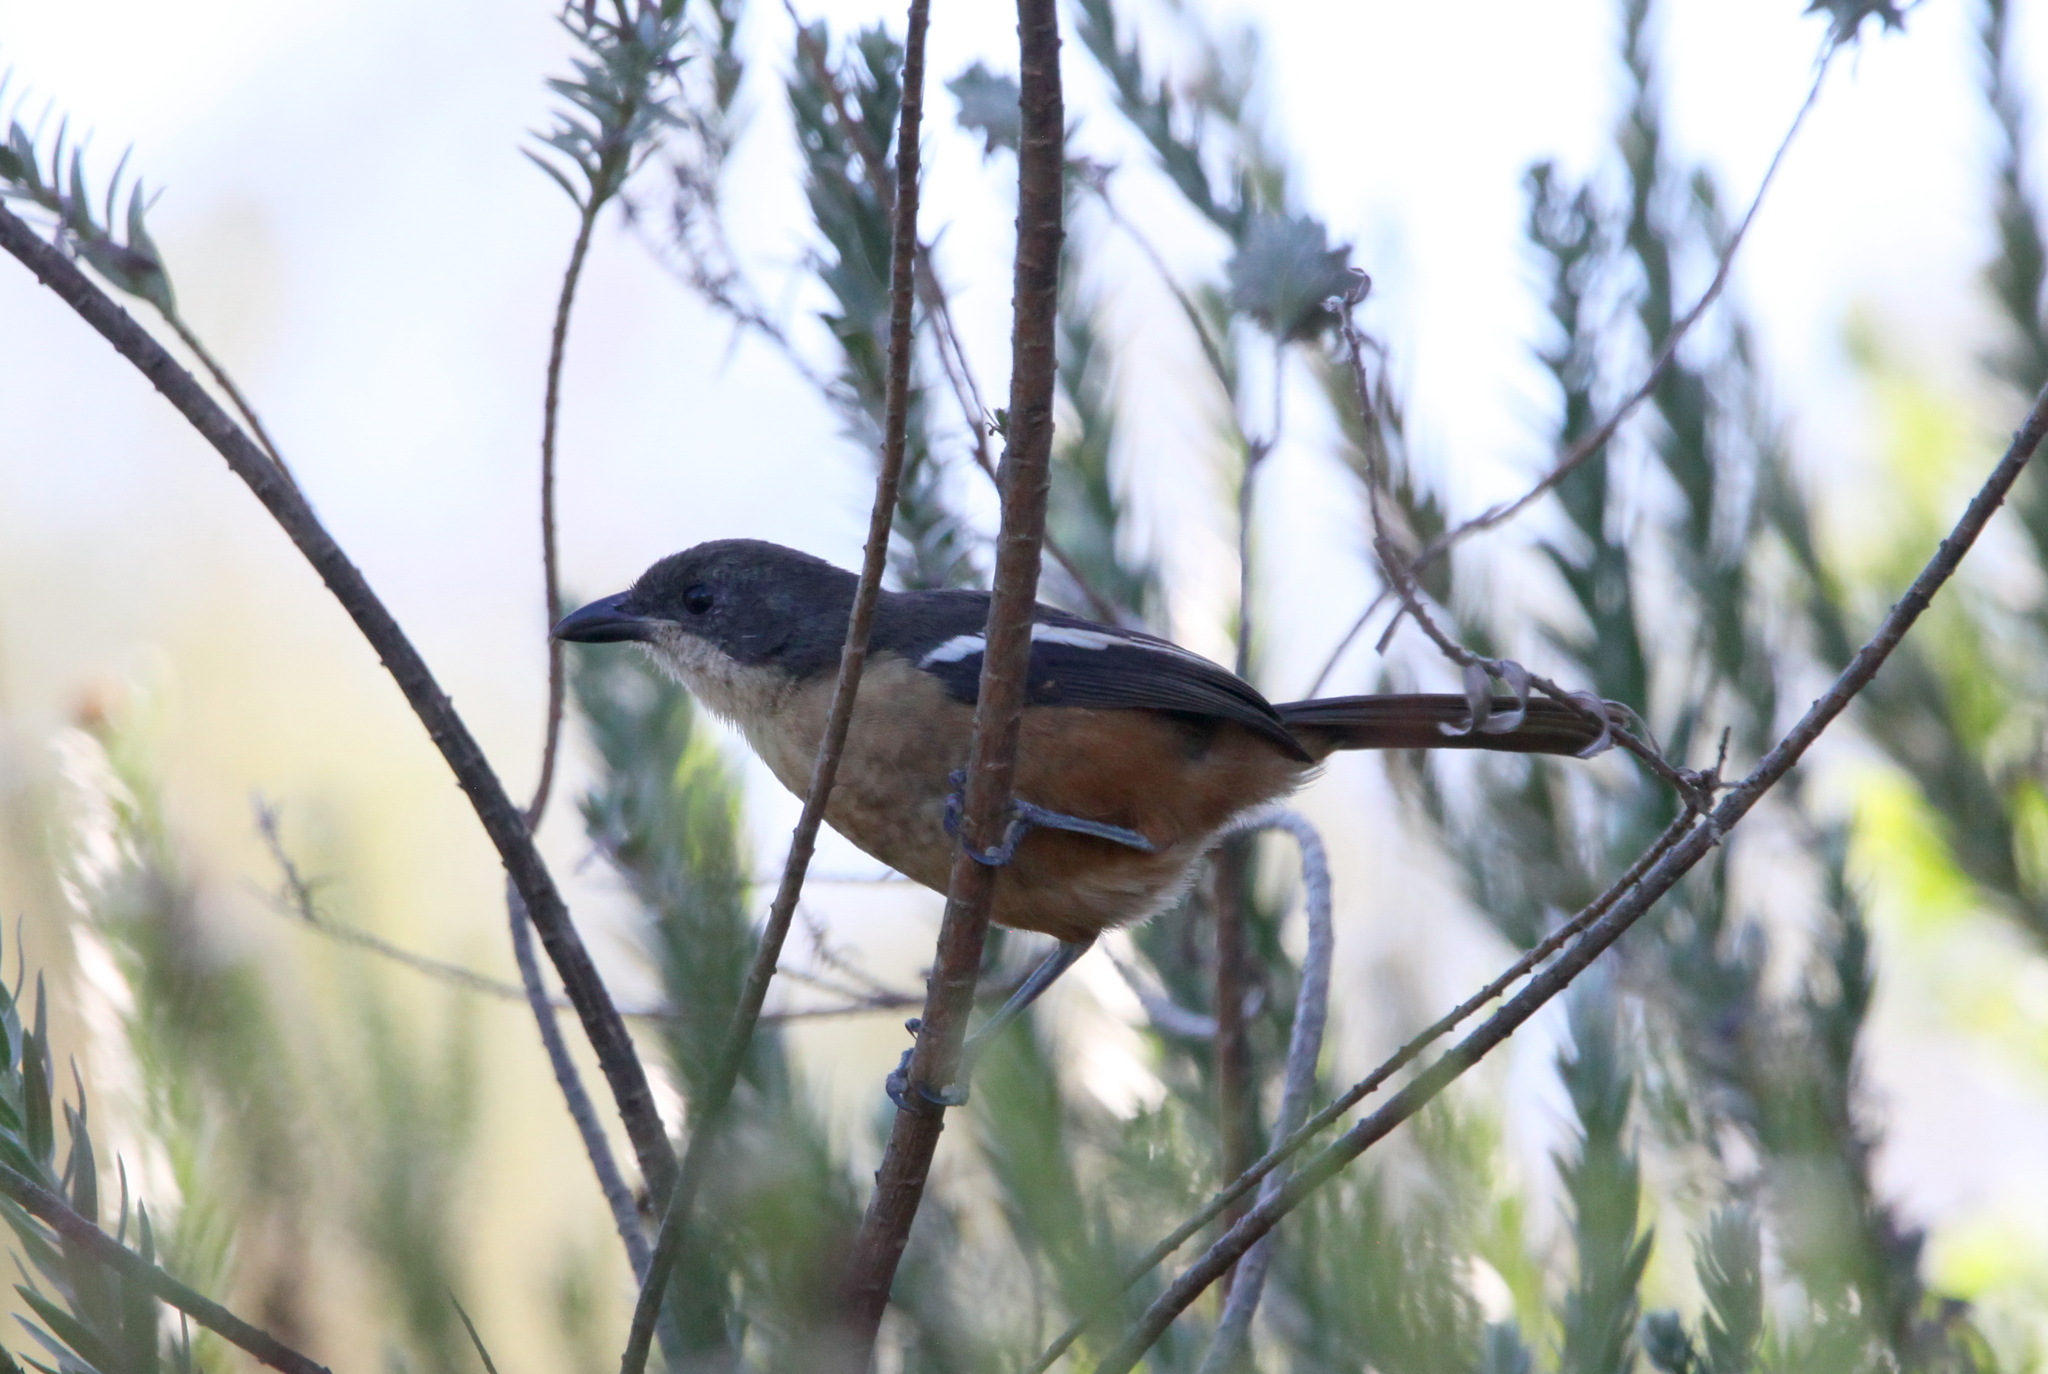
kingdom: Animalia
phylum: Chordata
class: Aves
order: Passeriformes
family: Malaconotidae
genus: Laniarius
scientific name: Laniarius ferrugineus
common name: Southern boubou
